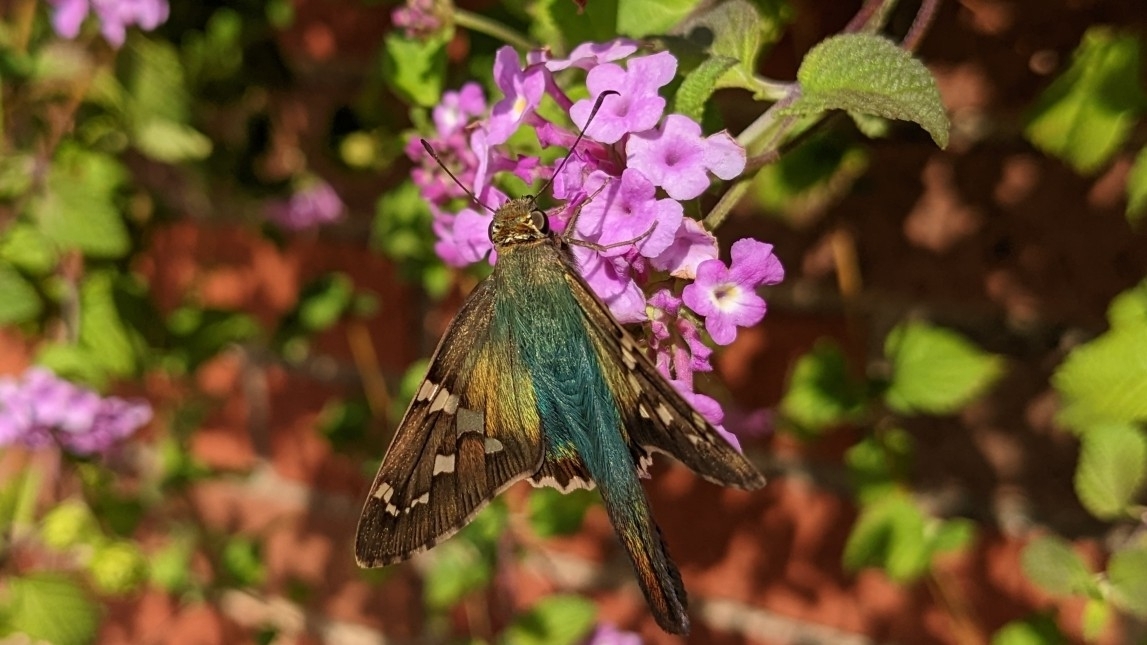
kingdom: Animalia
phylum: Arthropoda
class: Insecta
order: Lepidoptera
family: Hesperiidae
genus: Urbanus
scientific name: Urbanus proteus
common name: Long-tailed skipper
